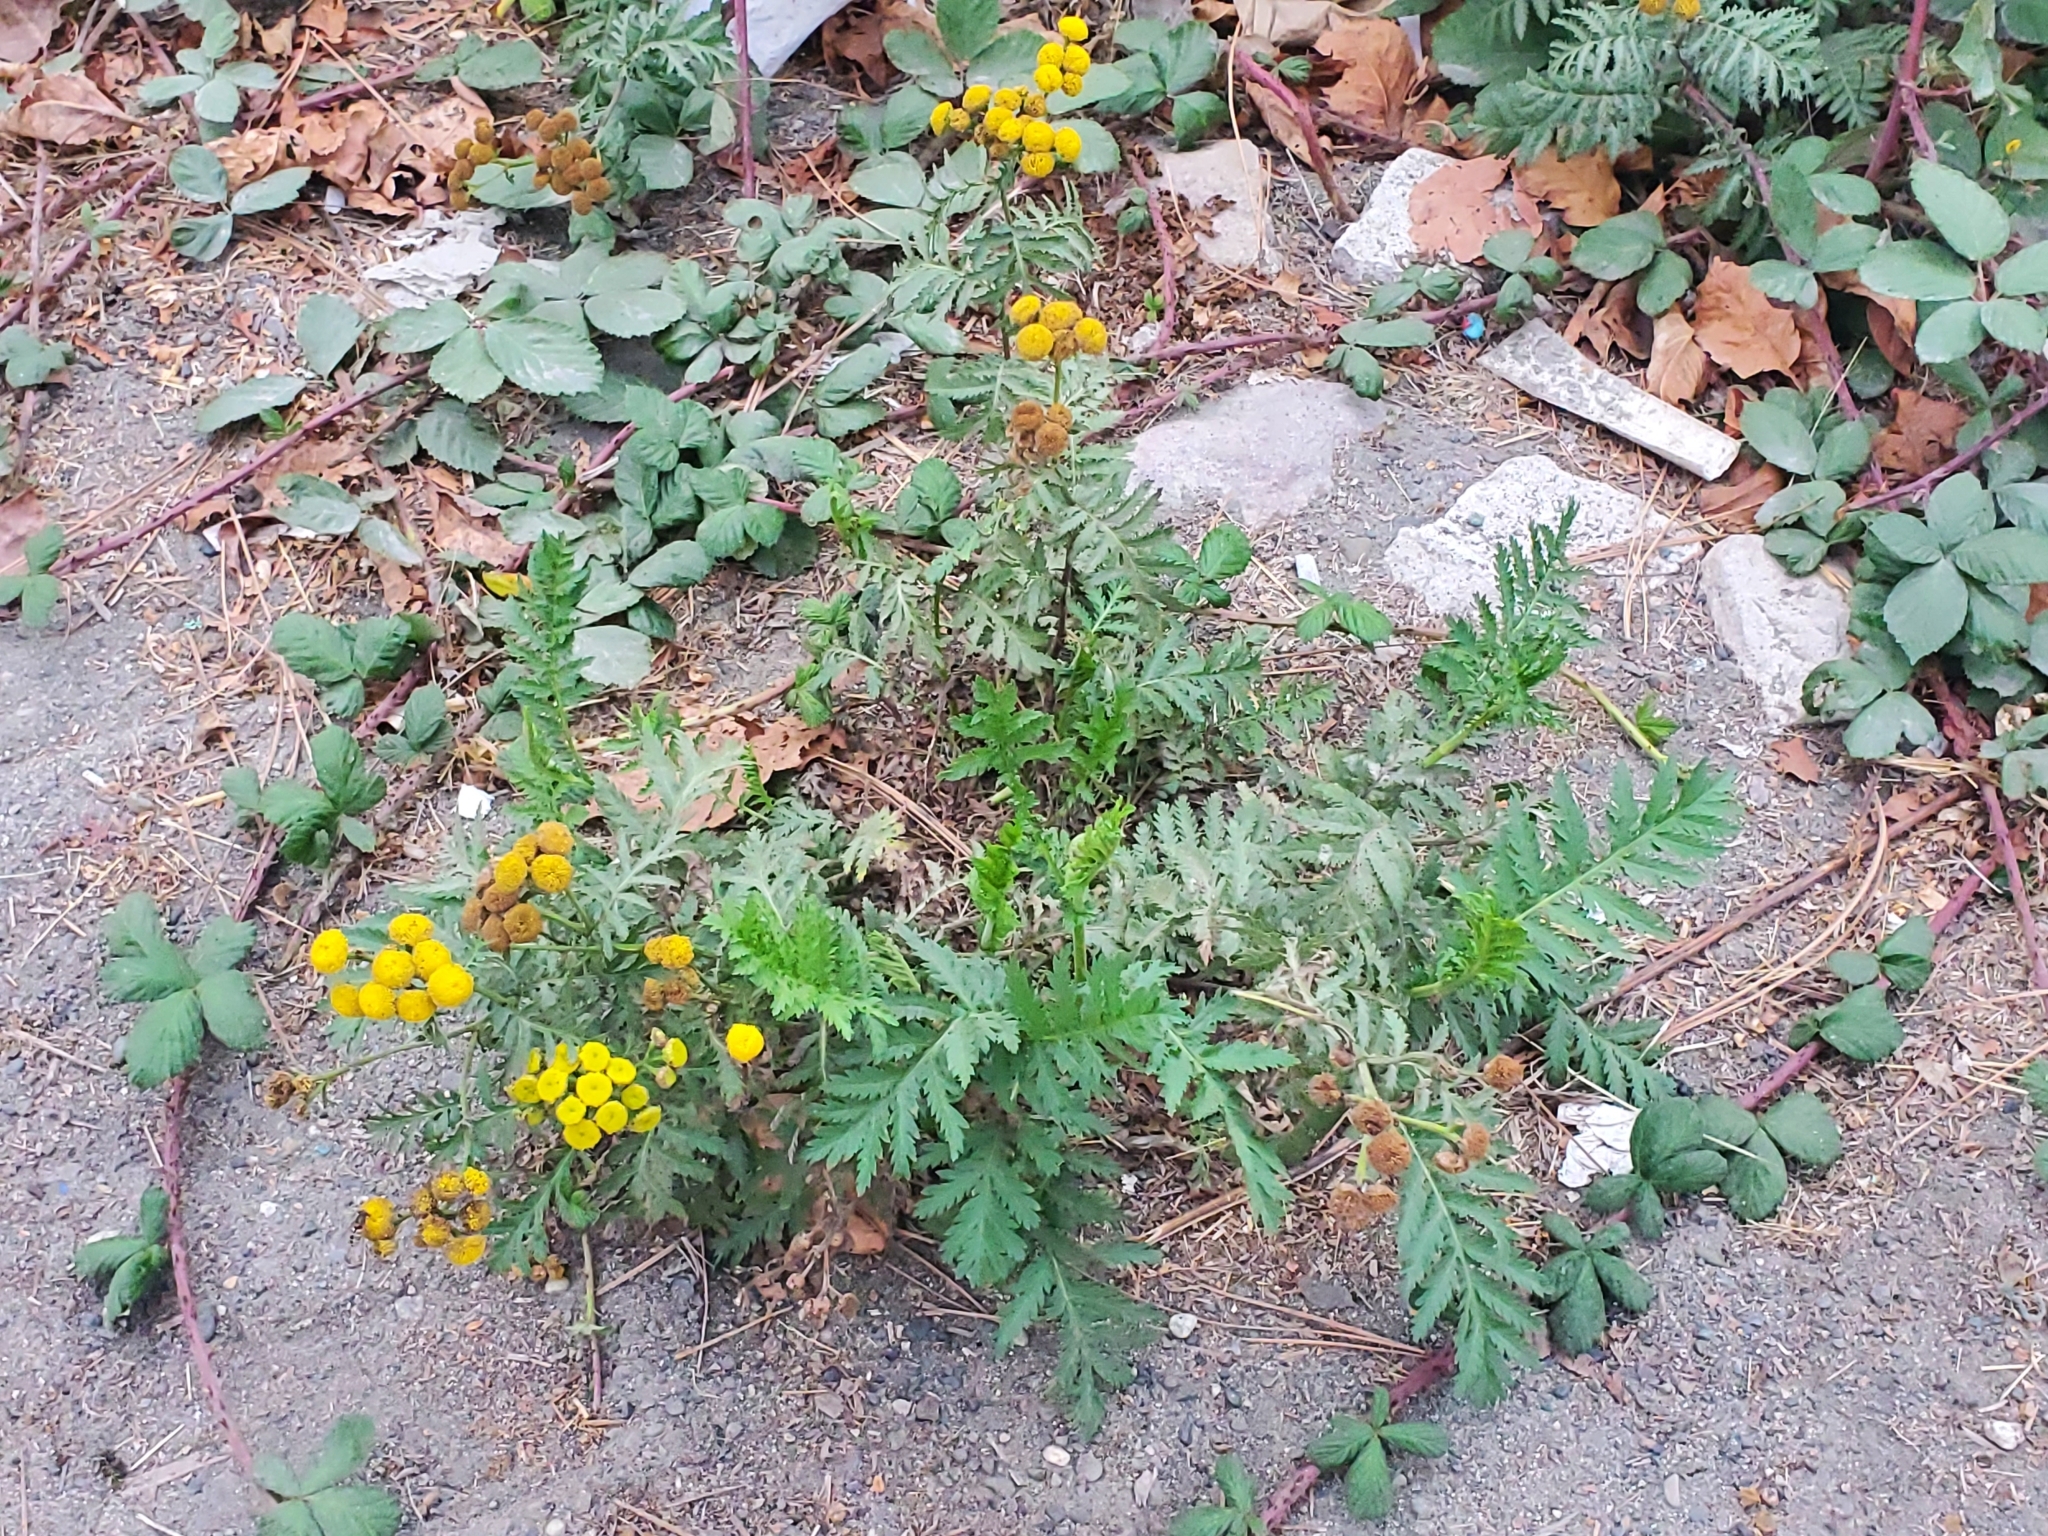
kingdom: Plantae
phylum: Tracheophyta
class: Magnoliopsida
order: Asterales
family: Asteraceae
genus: Tanacetum
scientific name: Tanacetum vulgare
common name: Common tansy
